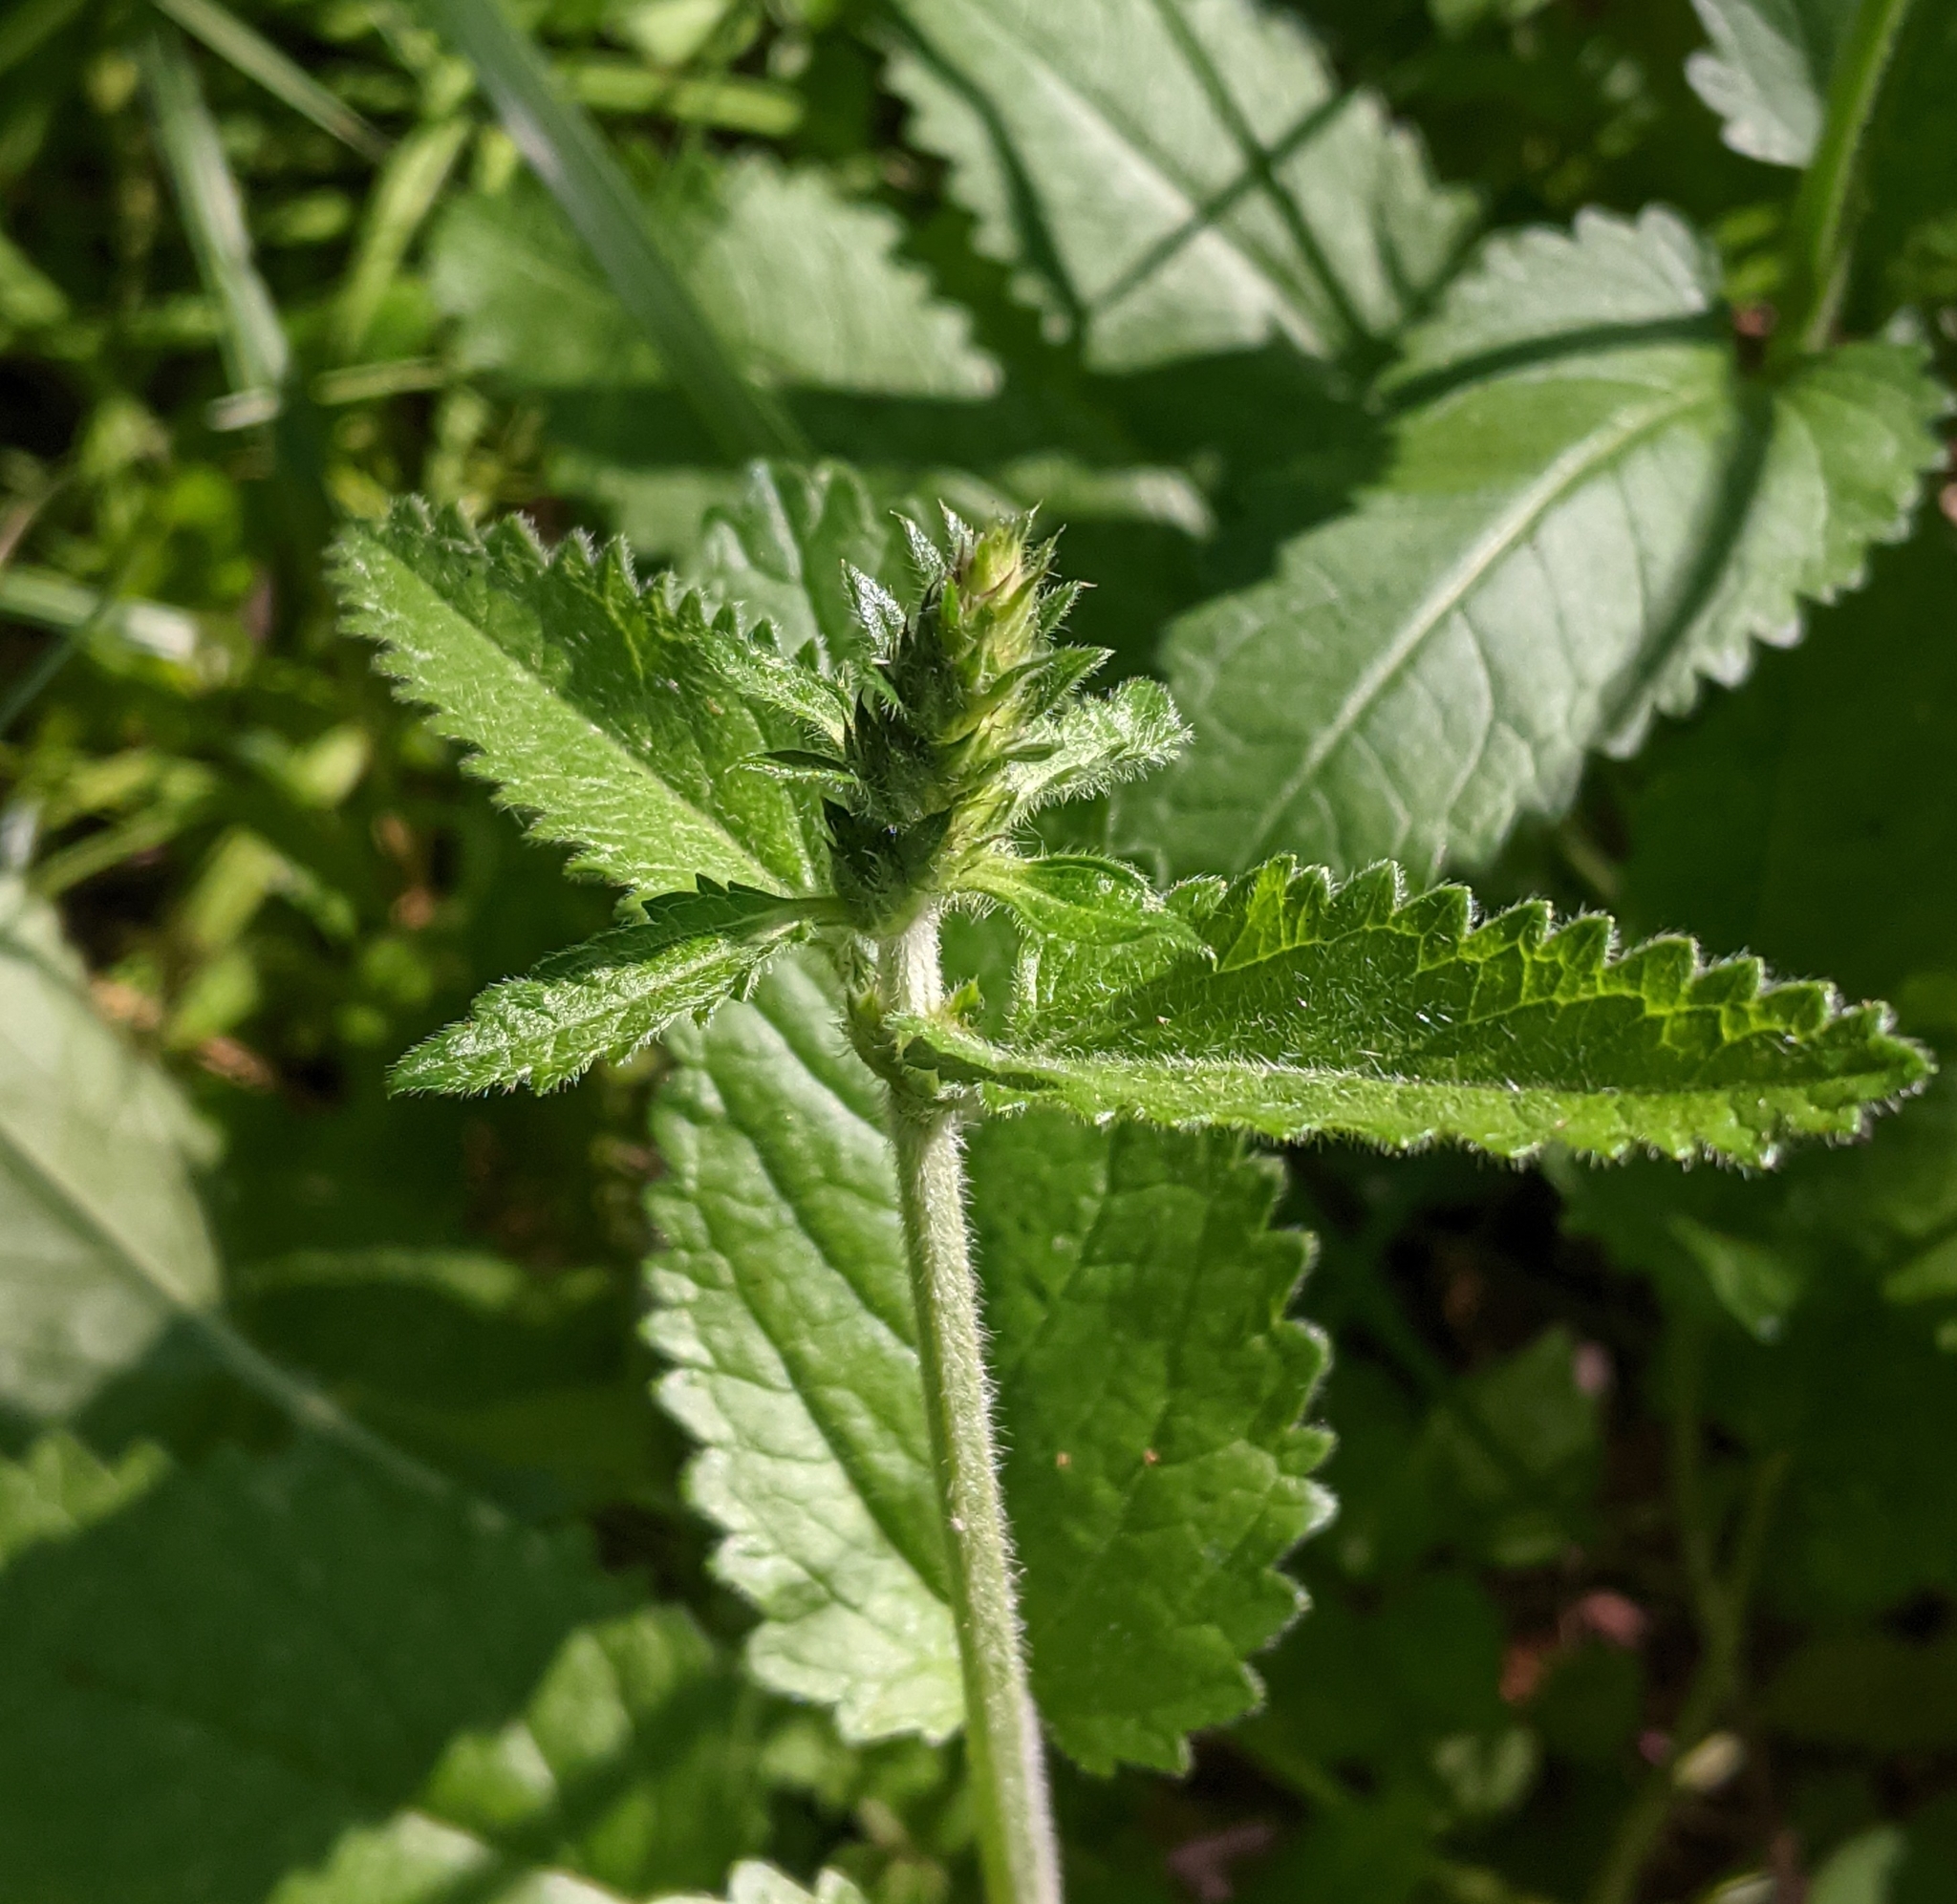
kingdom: Plantae
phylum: Tracheophyta
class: Magnoliopsida
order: Lamiales
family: Lamiaceae
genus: Betonica
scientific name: Betonica officinalis
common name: Bishop's-wort
